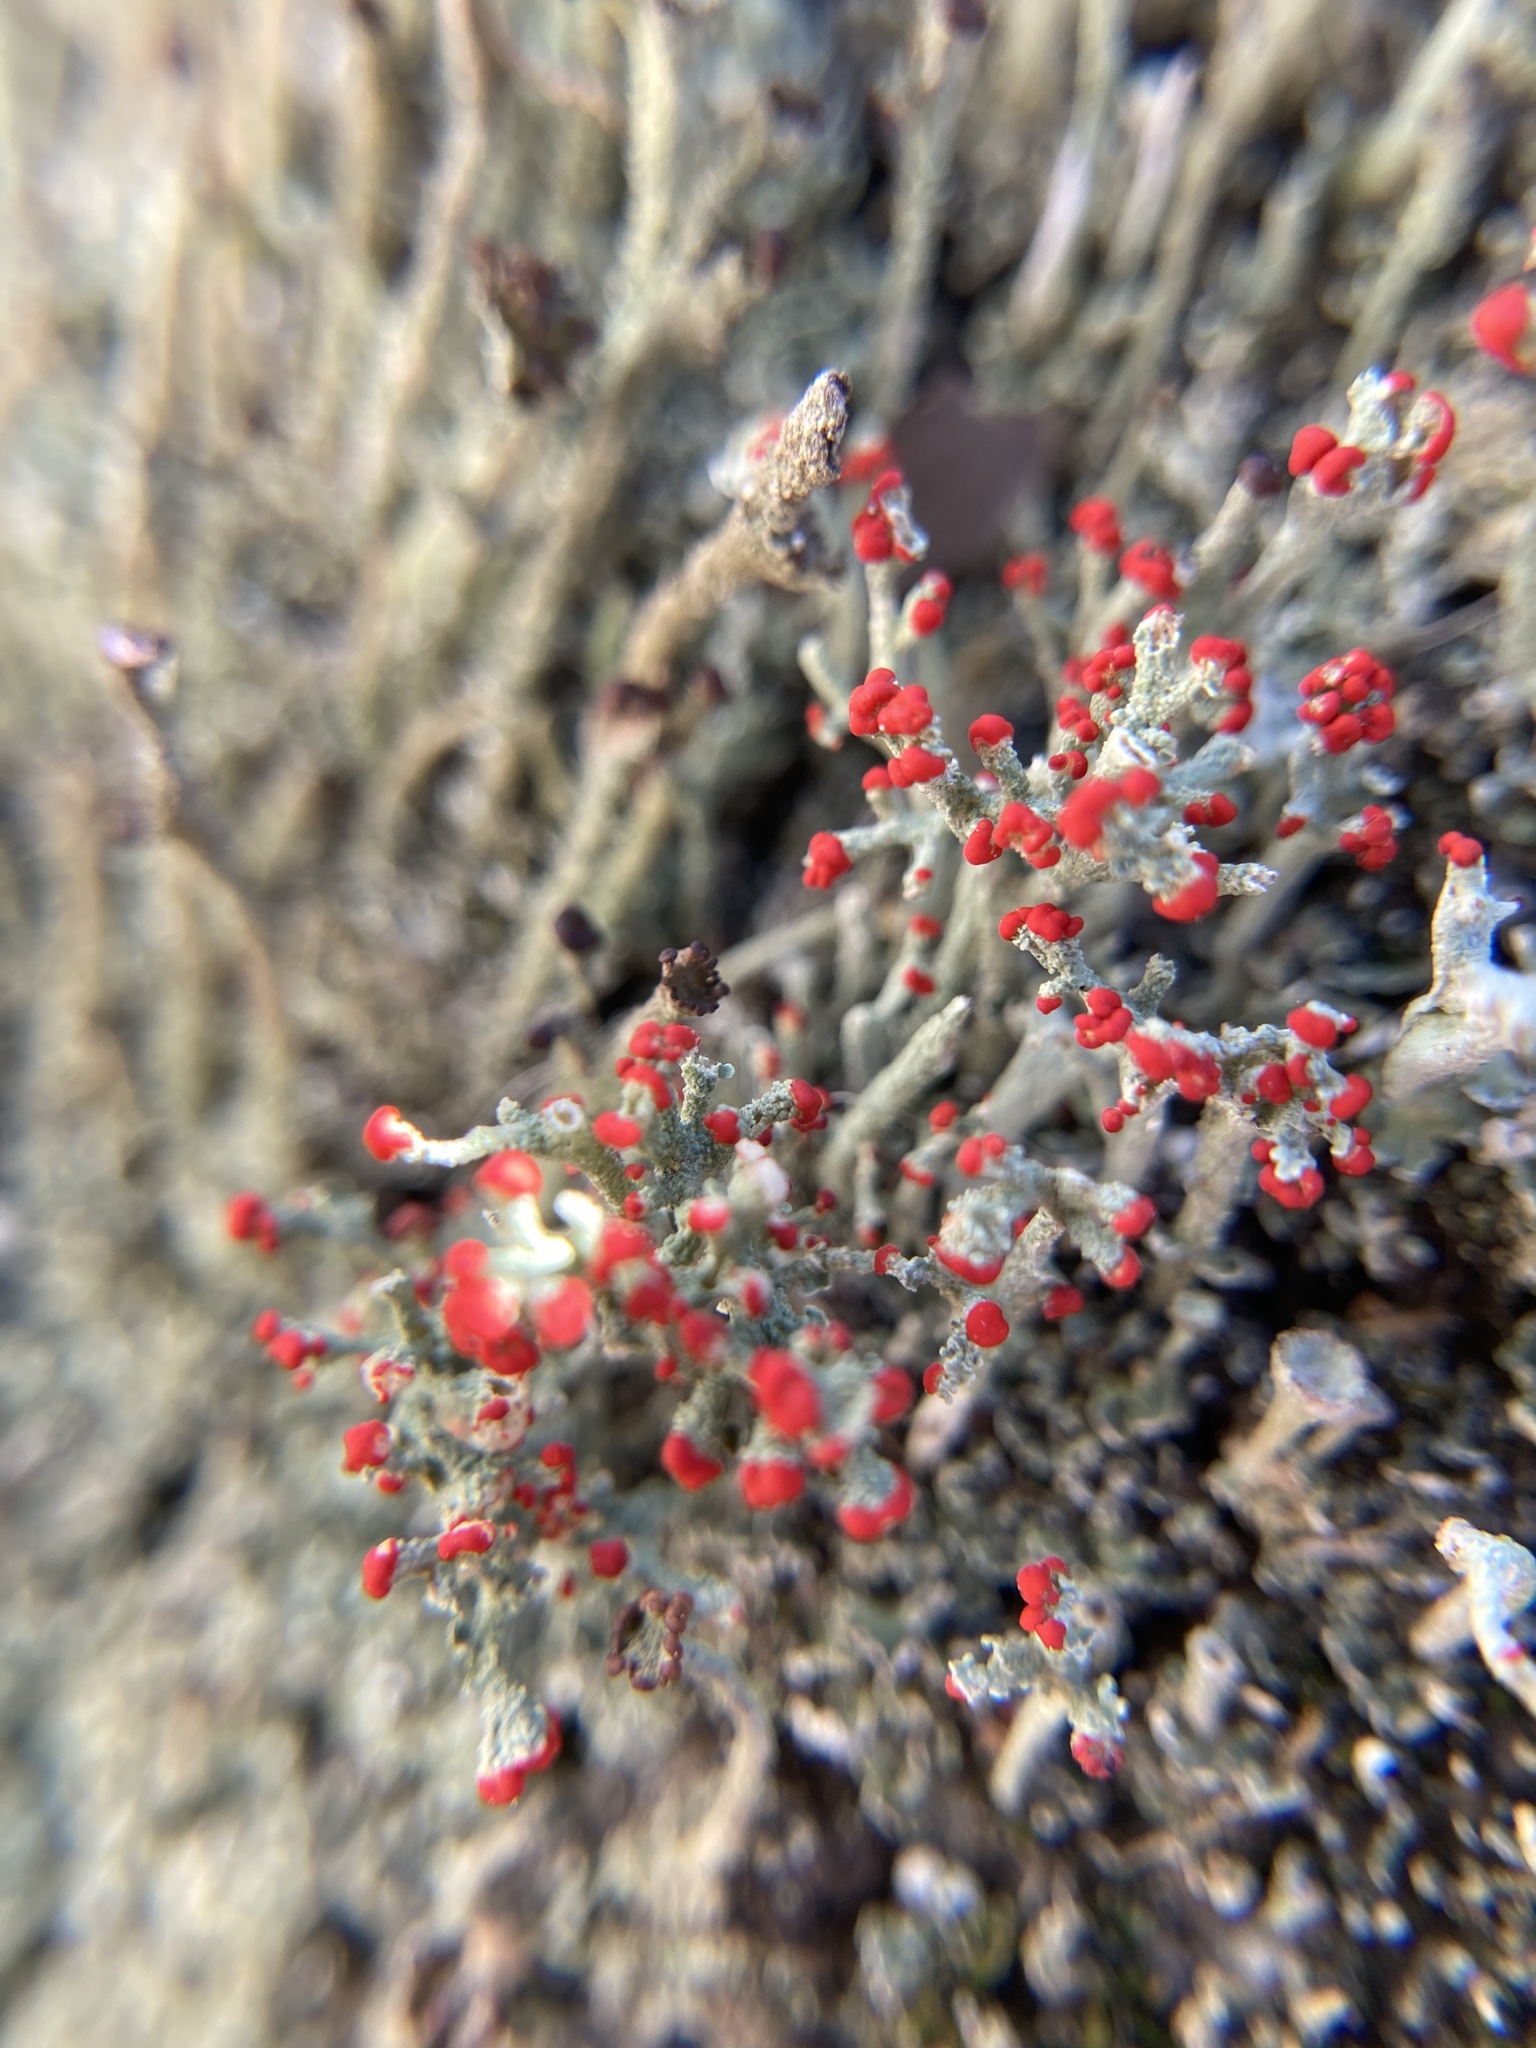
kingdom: Fungi
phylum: Ascomycota
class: Lecanoromycetes
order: Lecanorales
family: Cladoniaceae
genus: Cladonia
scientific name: Cladonia cristatella
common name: British soldier lichen
